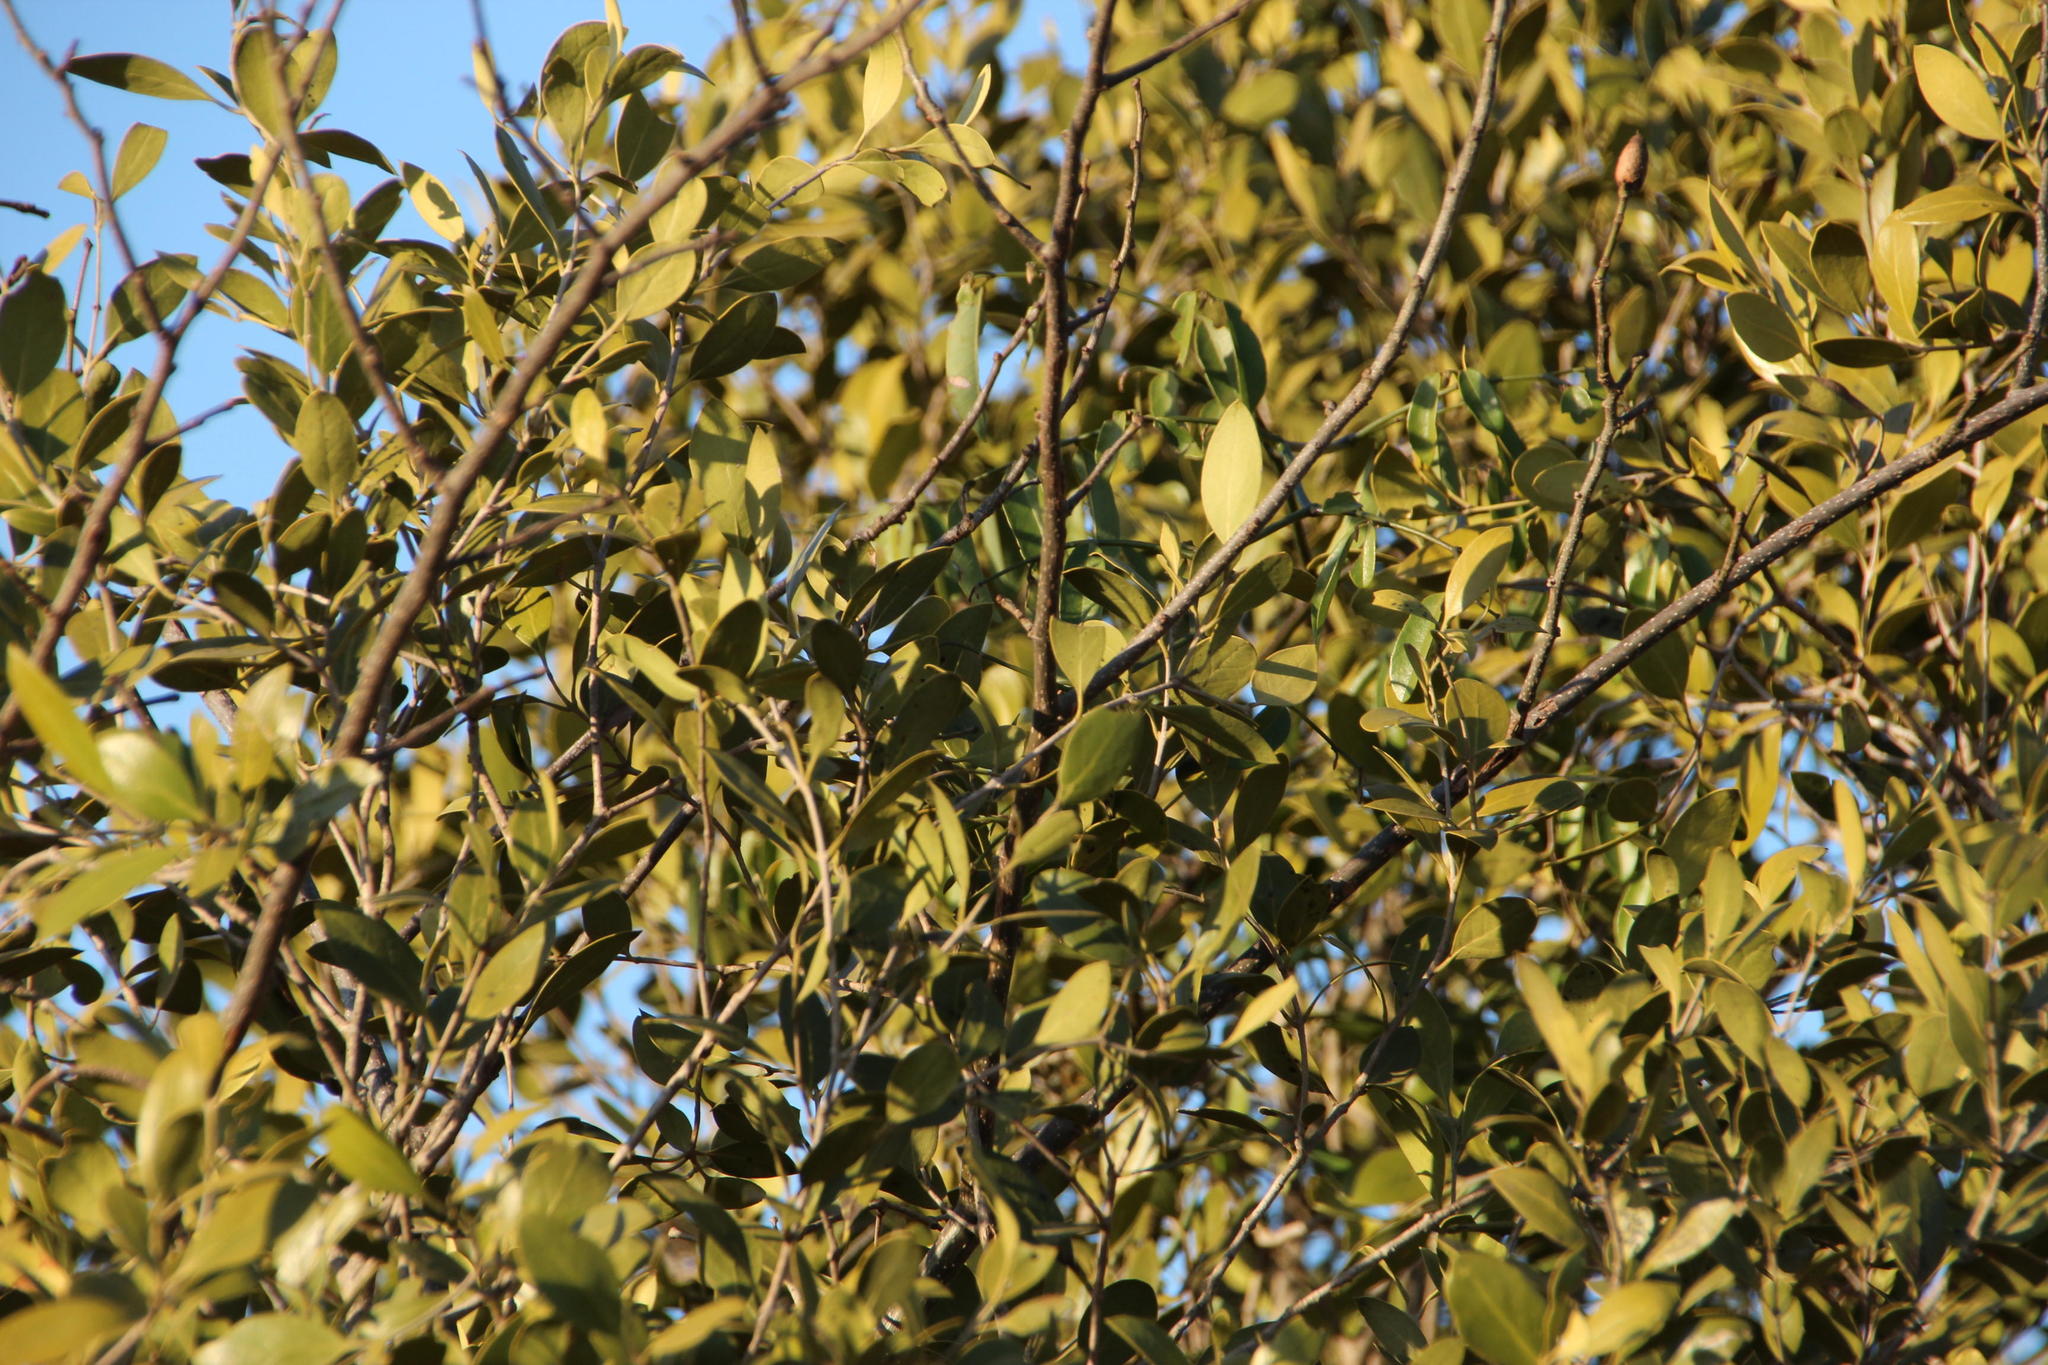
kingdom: Plantae
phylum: Tracheophyta
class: Magnoliopsida
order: Lamiales
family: Oleaceae
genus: Olea
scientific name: Olea capensis
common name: Black ironwood
